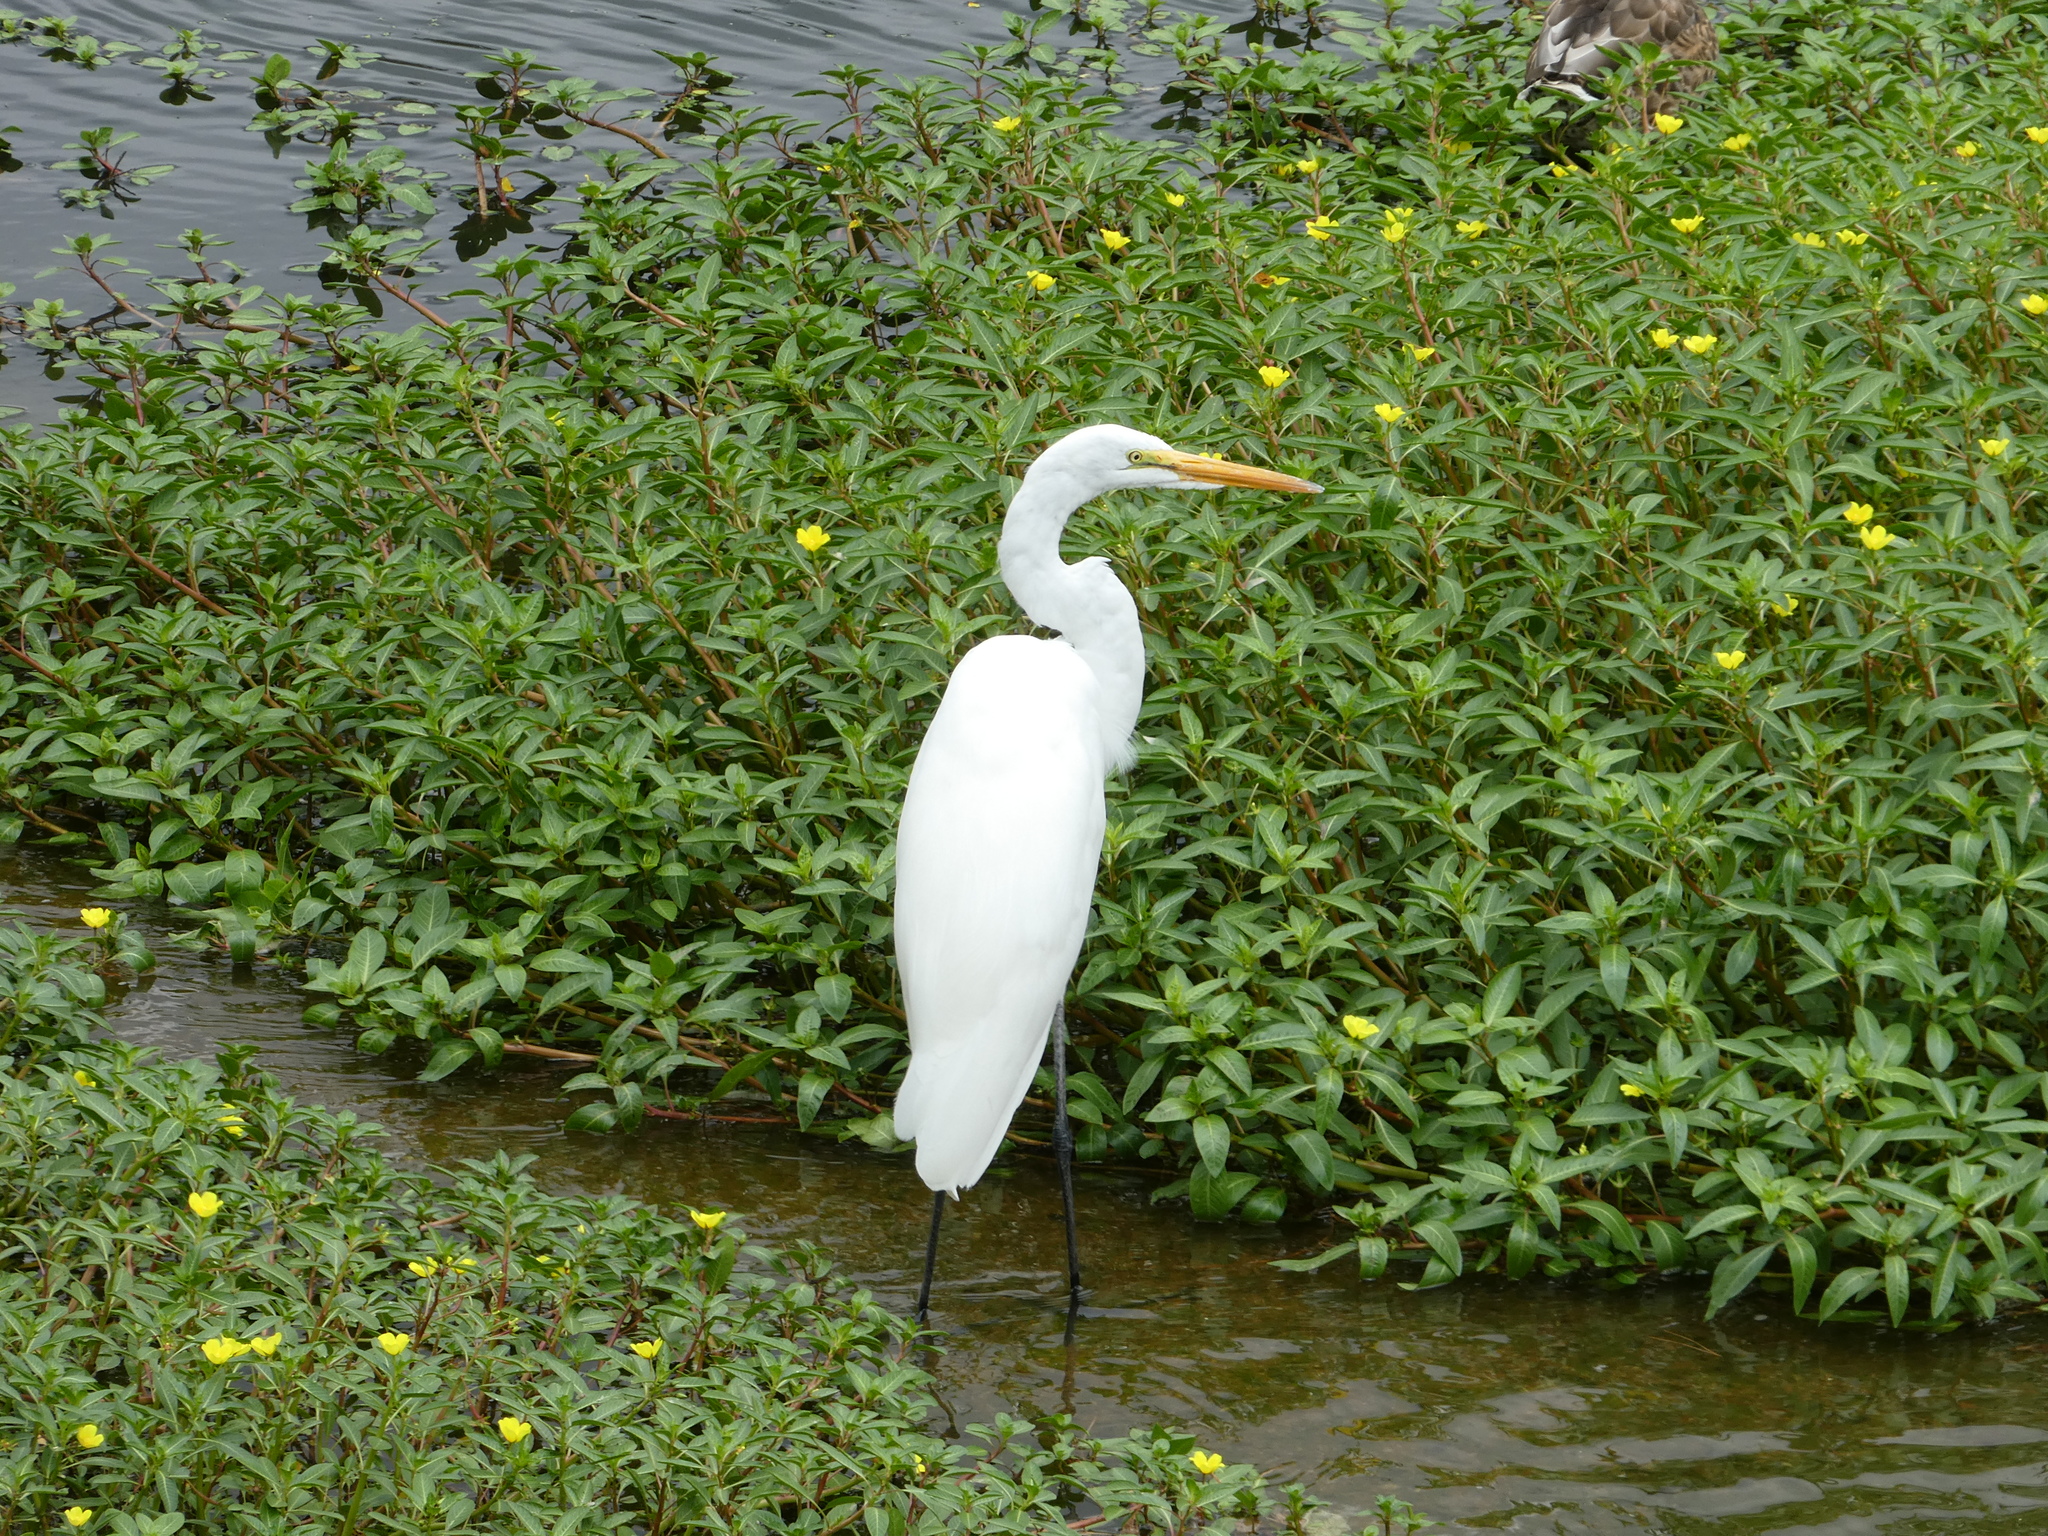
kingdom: Animalia
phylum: Chordata
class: Aves
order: Pelecaniformes
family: Ardeidae
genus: Ardea
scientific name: Ardea alba
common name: Great egret
